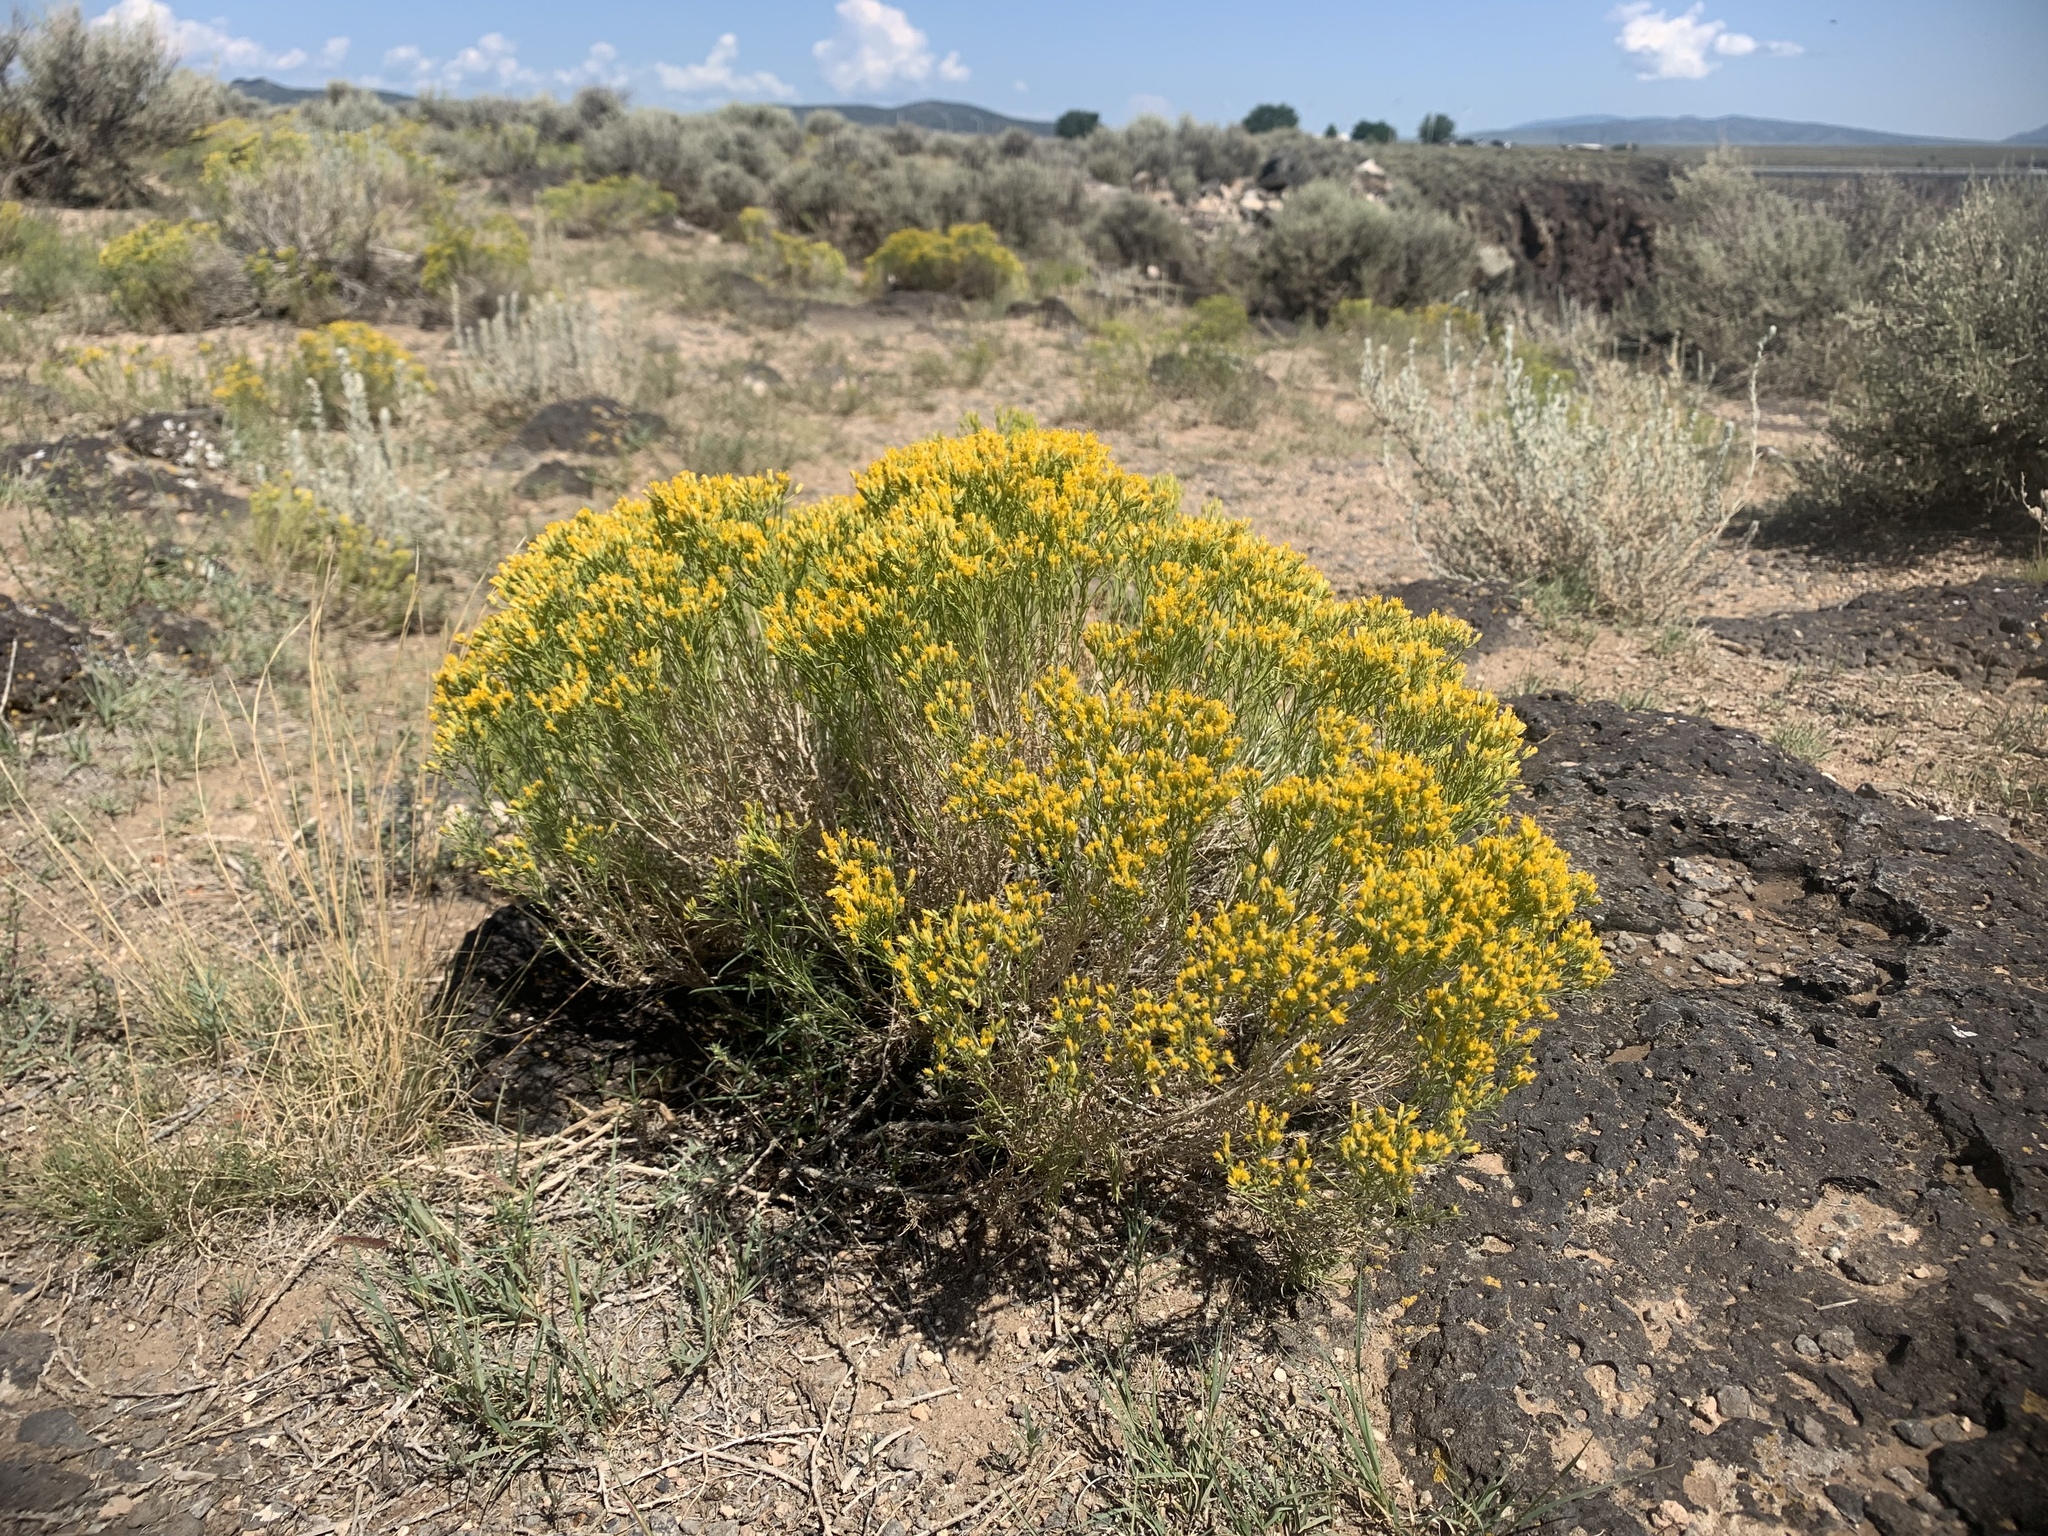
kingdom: Plantae
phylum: Tracheophyta
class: Magnoliopsida
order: Asterales
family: Asteraceae
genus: Chrysothamnus
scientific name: Chrysothamnus greenei
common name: Greene's rabbitbrush
